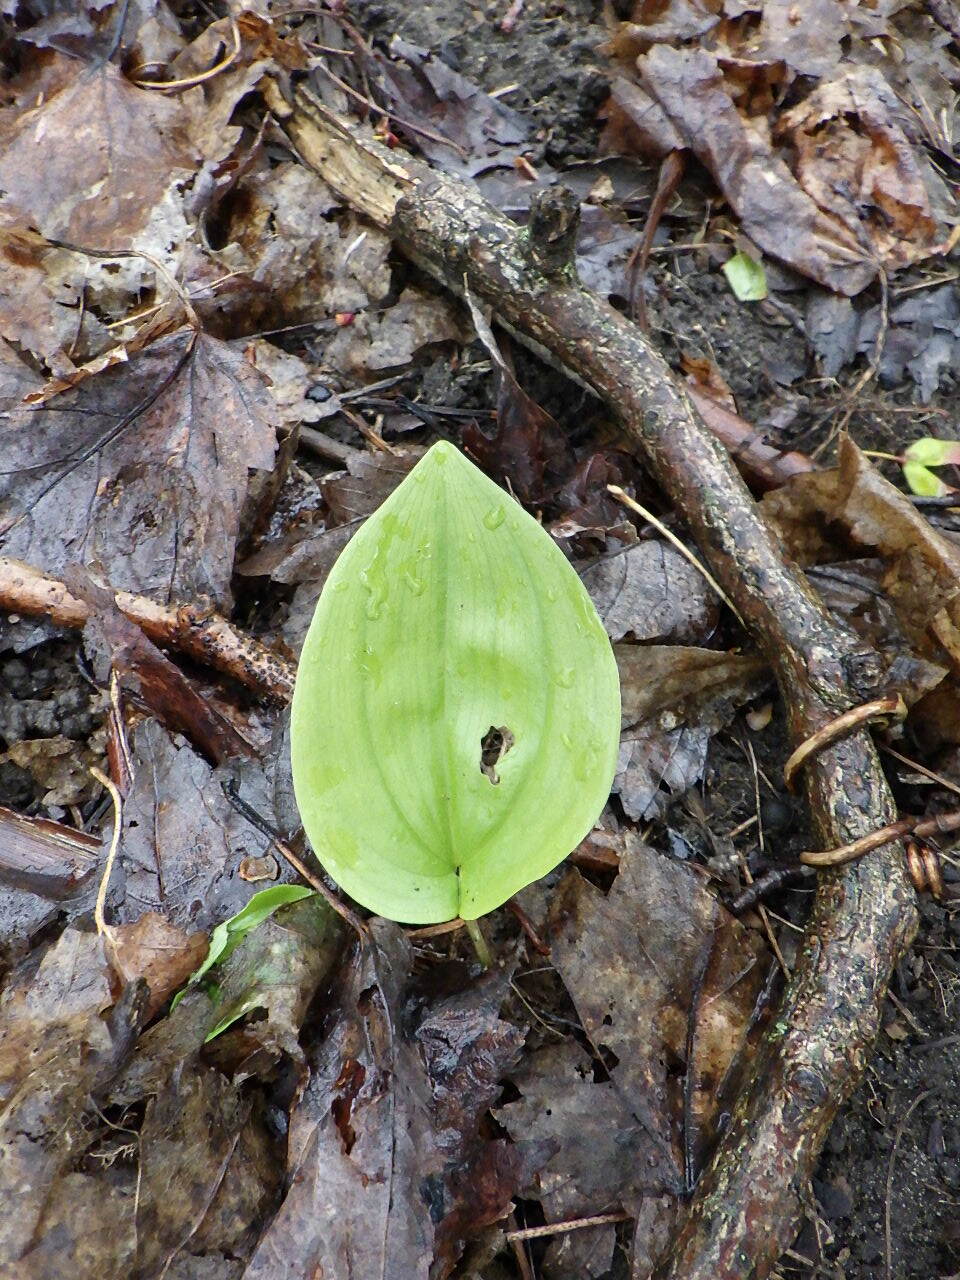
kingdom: Plantae
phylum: Tracheophyta
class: Liliopsida
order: Asparagales
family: Asparagaceae
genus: Maianthemum
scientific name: Maianthemum canadense
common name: False lily-of-the-valley
